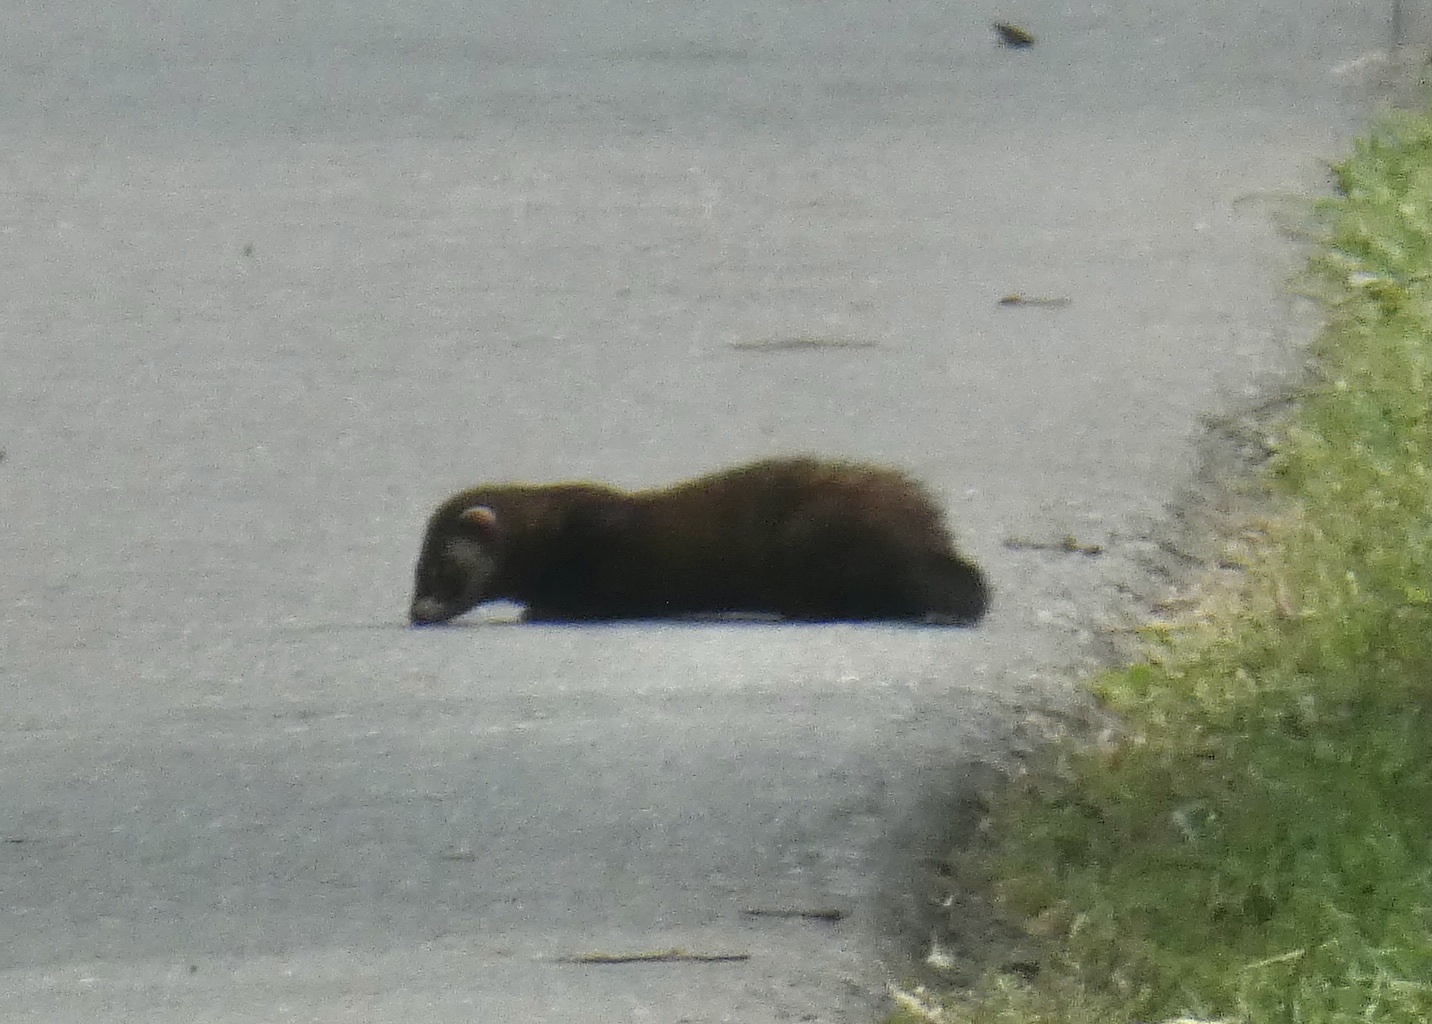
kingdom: Animalia
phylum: Chordata
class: Mammalia
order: Carnivora
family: Mustelidae
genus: Mustela
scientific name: Mustela putorius
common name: European polecat
